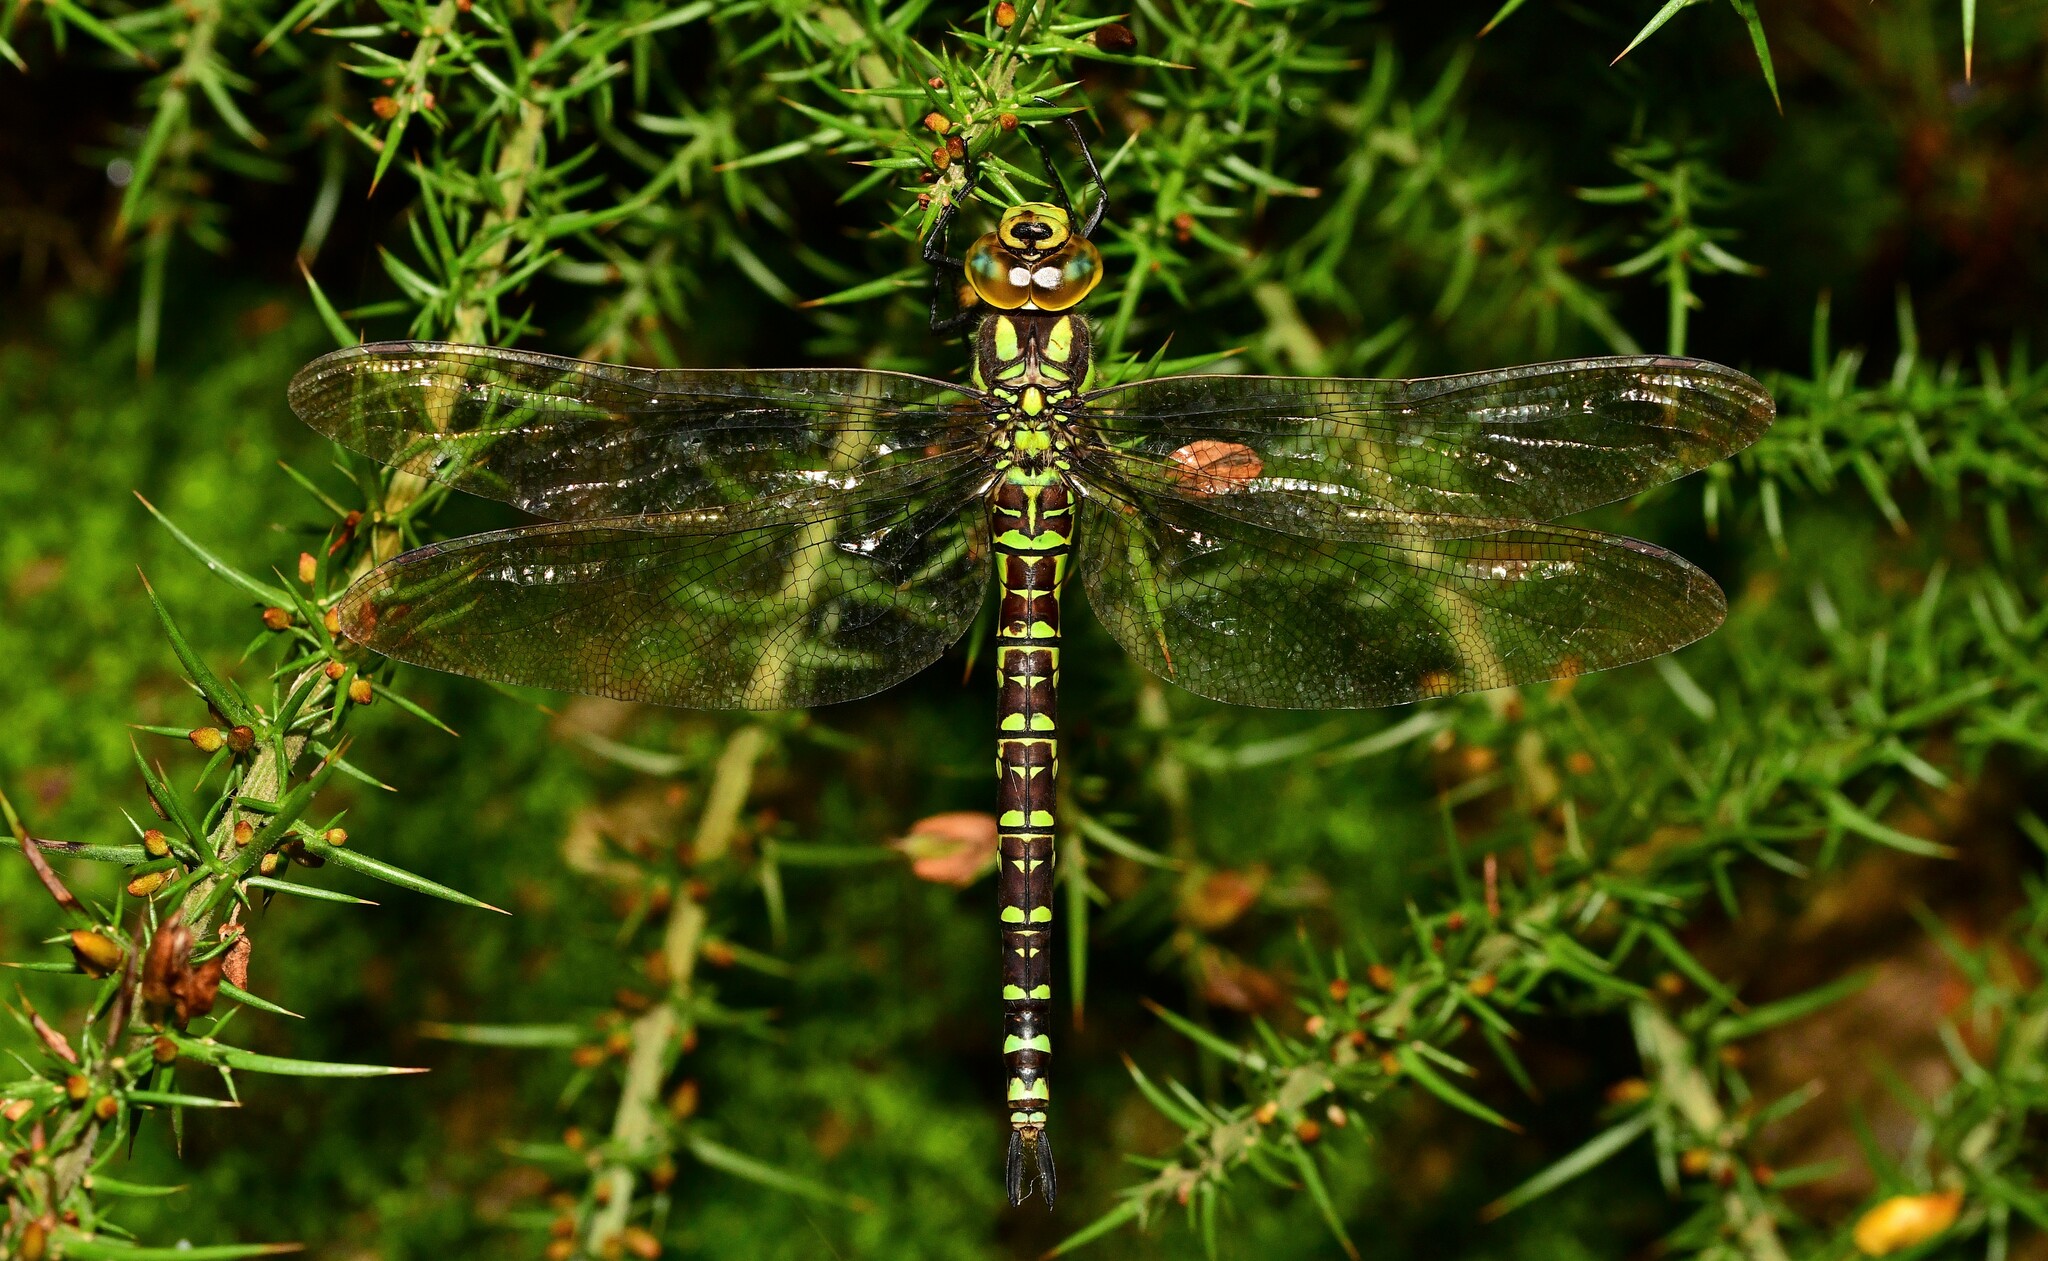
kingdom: Animalia
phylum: Arthropoda
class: Insecta
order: Odonata
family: Aeshnidae
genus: Aeshna
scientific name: Aeshna cyanea
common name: Southern hawker
